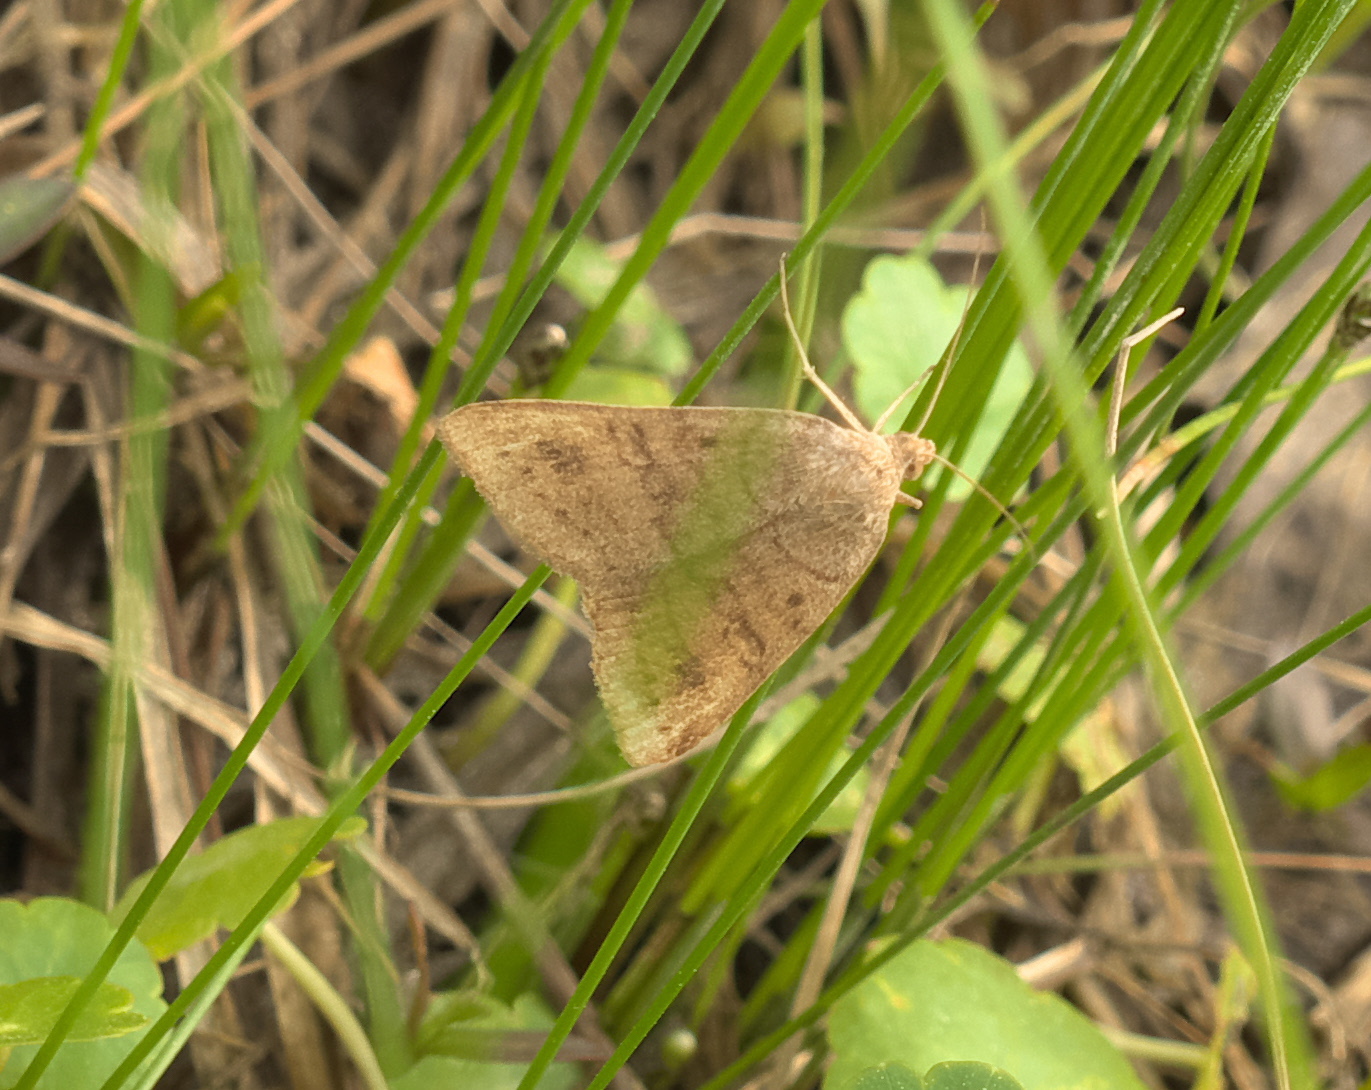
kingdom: Animalia
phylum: Arthropoda
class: Insecta
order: Lepidoptera
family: Erebidae
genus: Caenurgia
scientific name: Caenurgia chloropha
